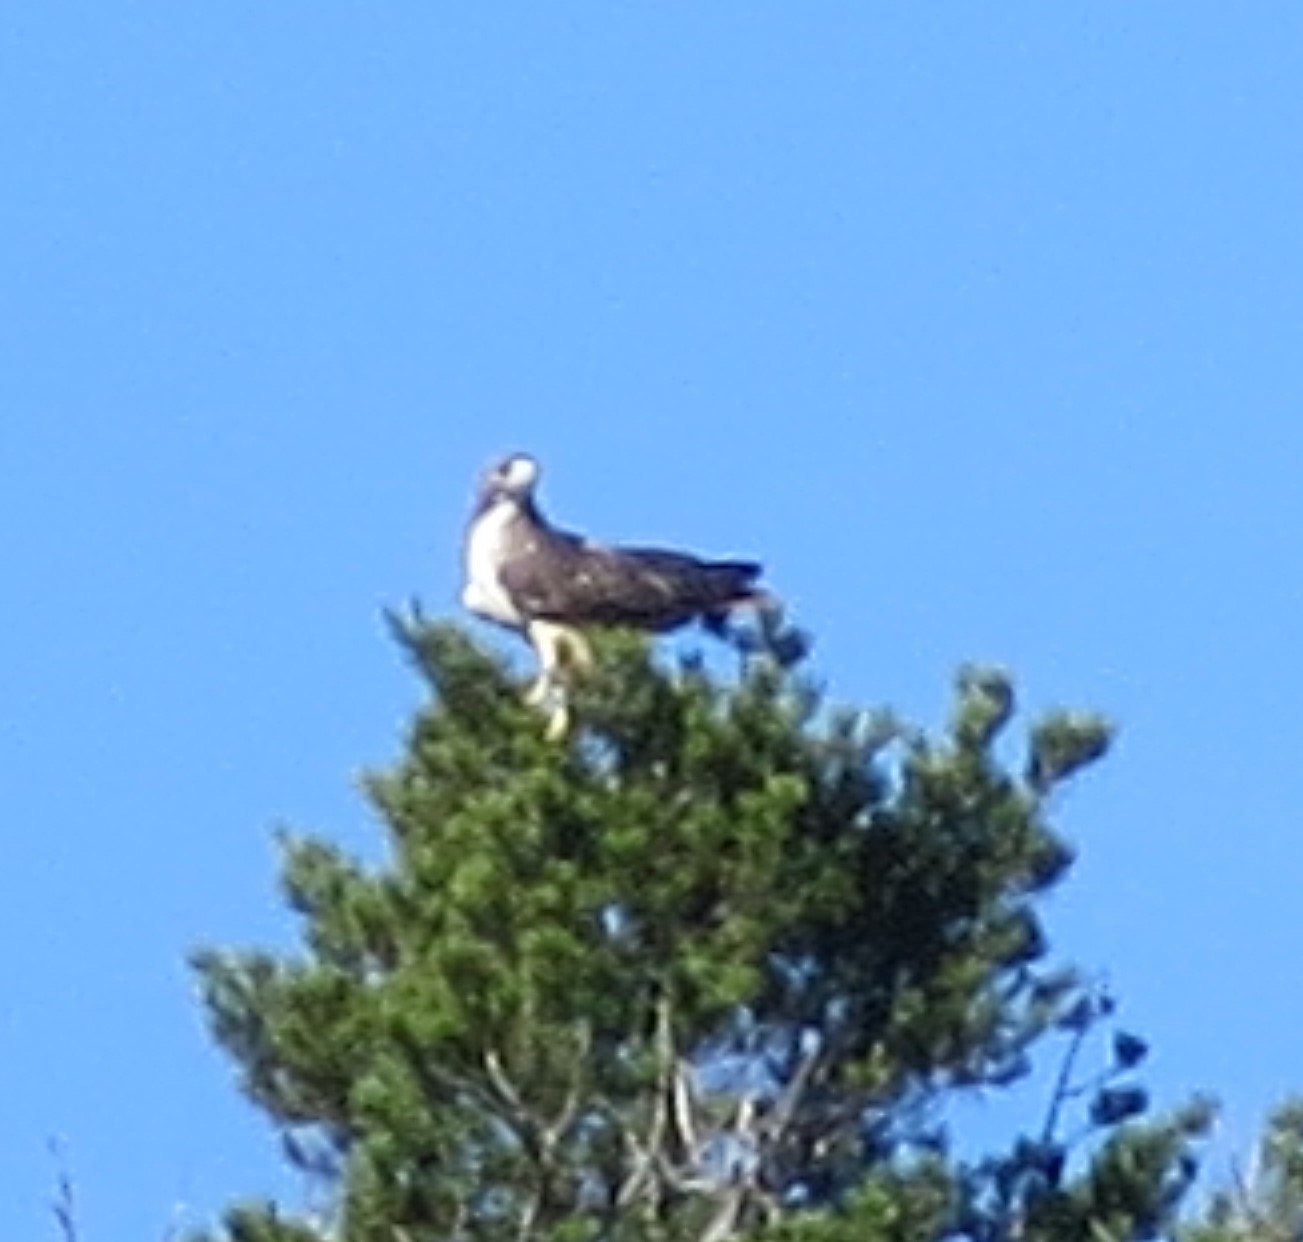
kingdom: Animalia
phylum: Chordata
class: Aves
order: Accipitriformes
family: Accipitridae
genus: Buteo
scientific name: Buteo jamaicensis
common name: Red-tailed hawk
